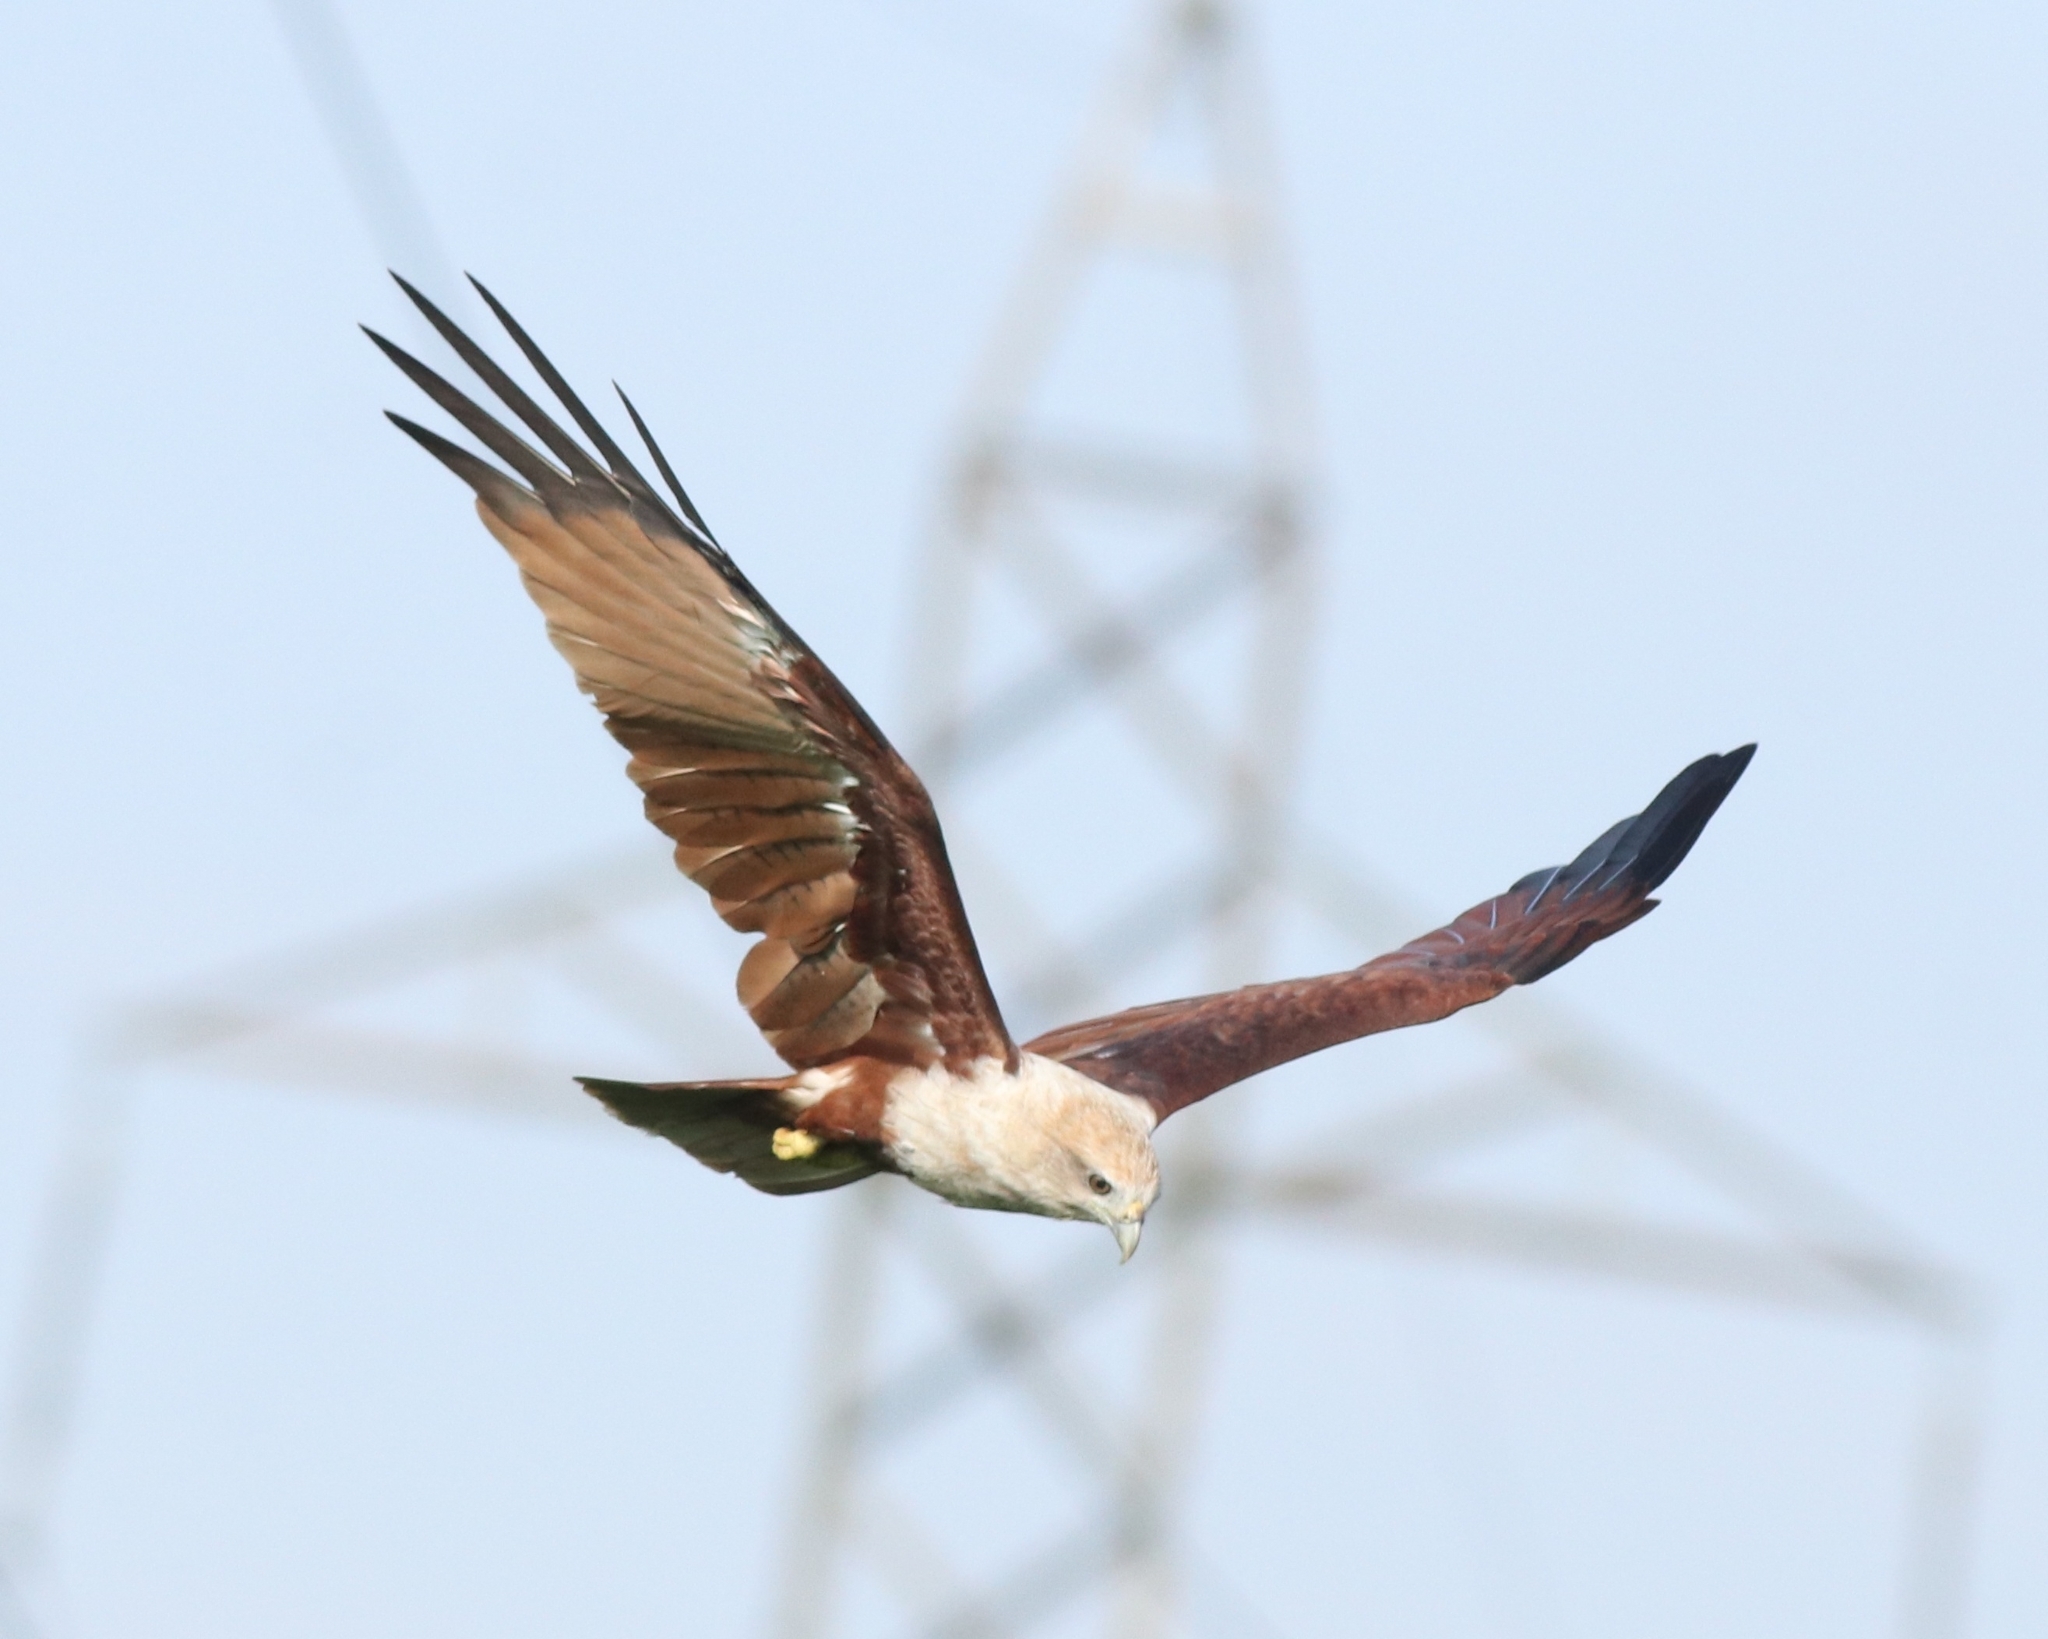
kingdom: Animalia
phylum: Chordata
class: Aves
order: Accipitriformes
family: Accipitridae
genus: Haliastur
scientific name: Haliastur indus
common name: Brahminy kite
